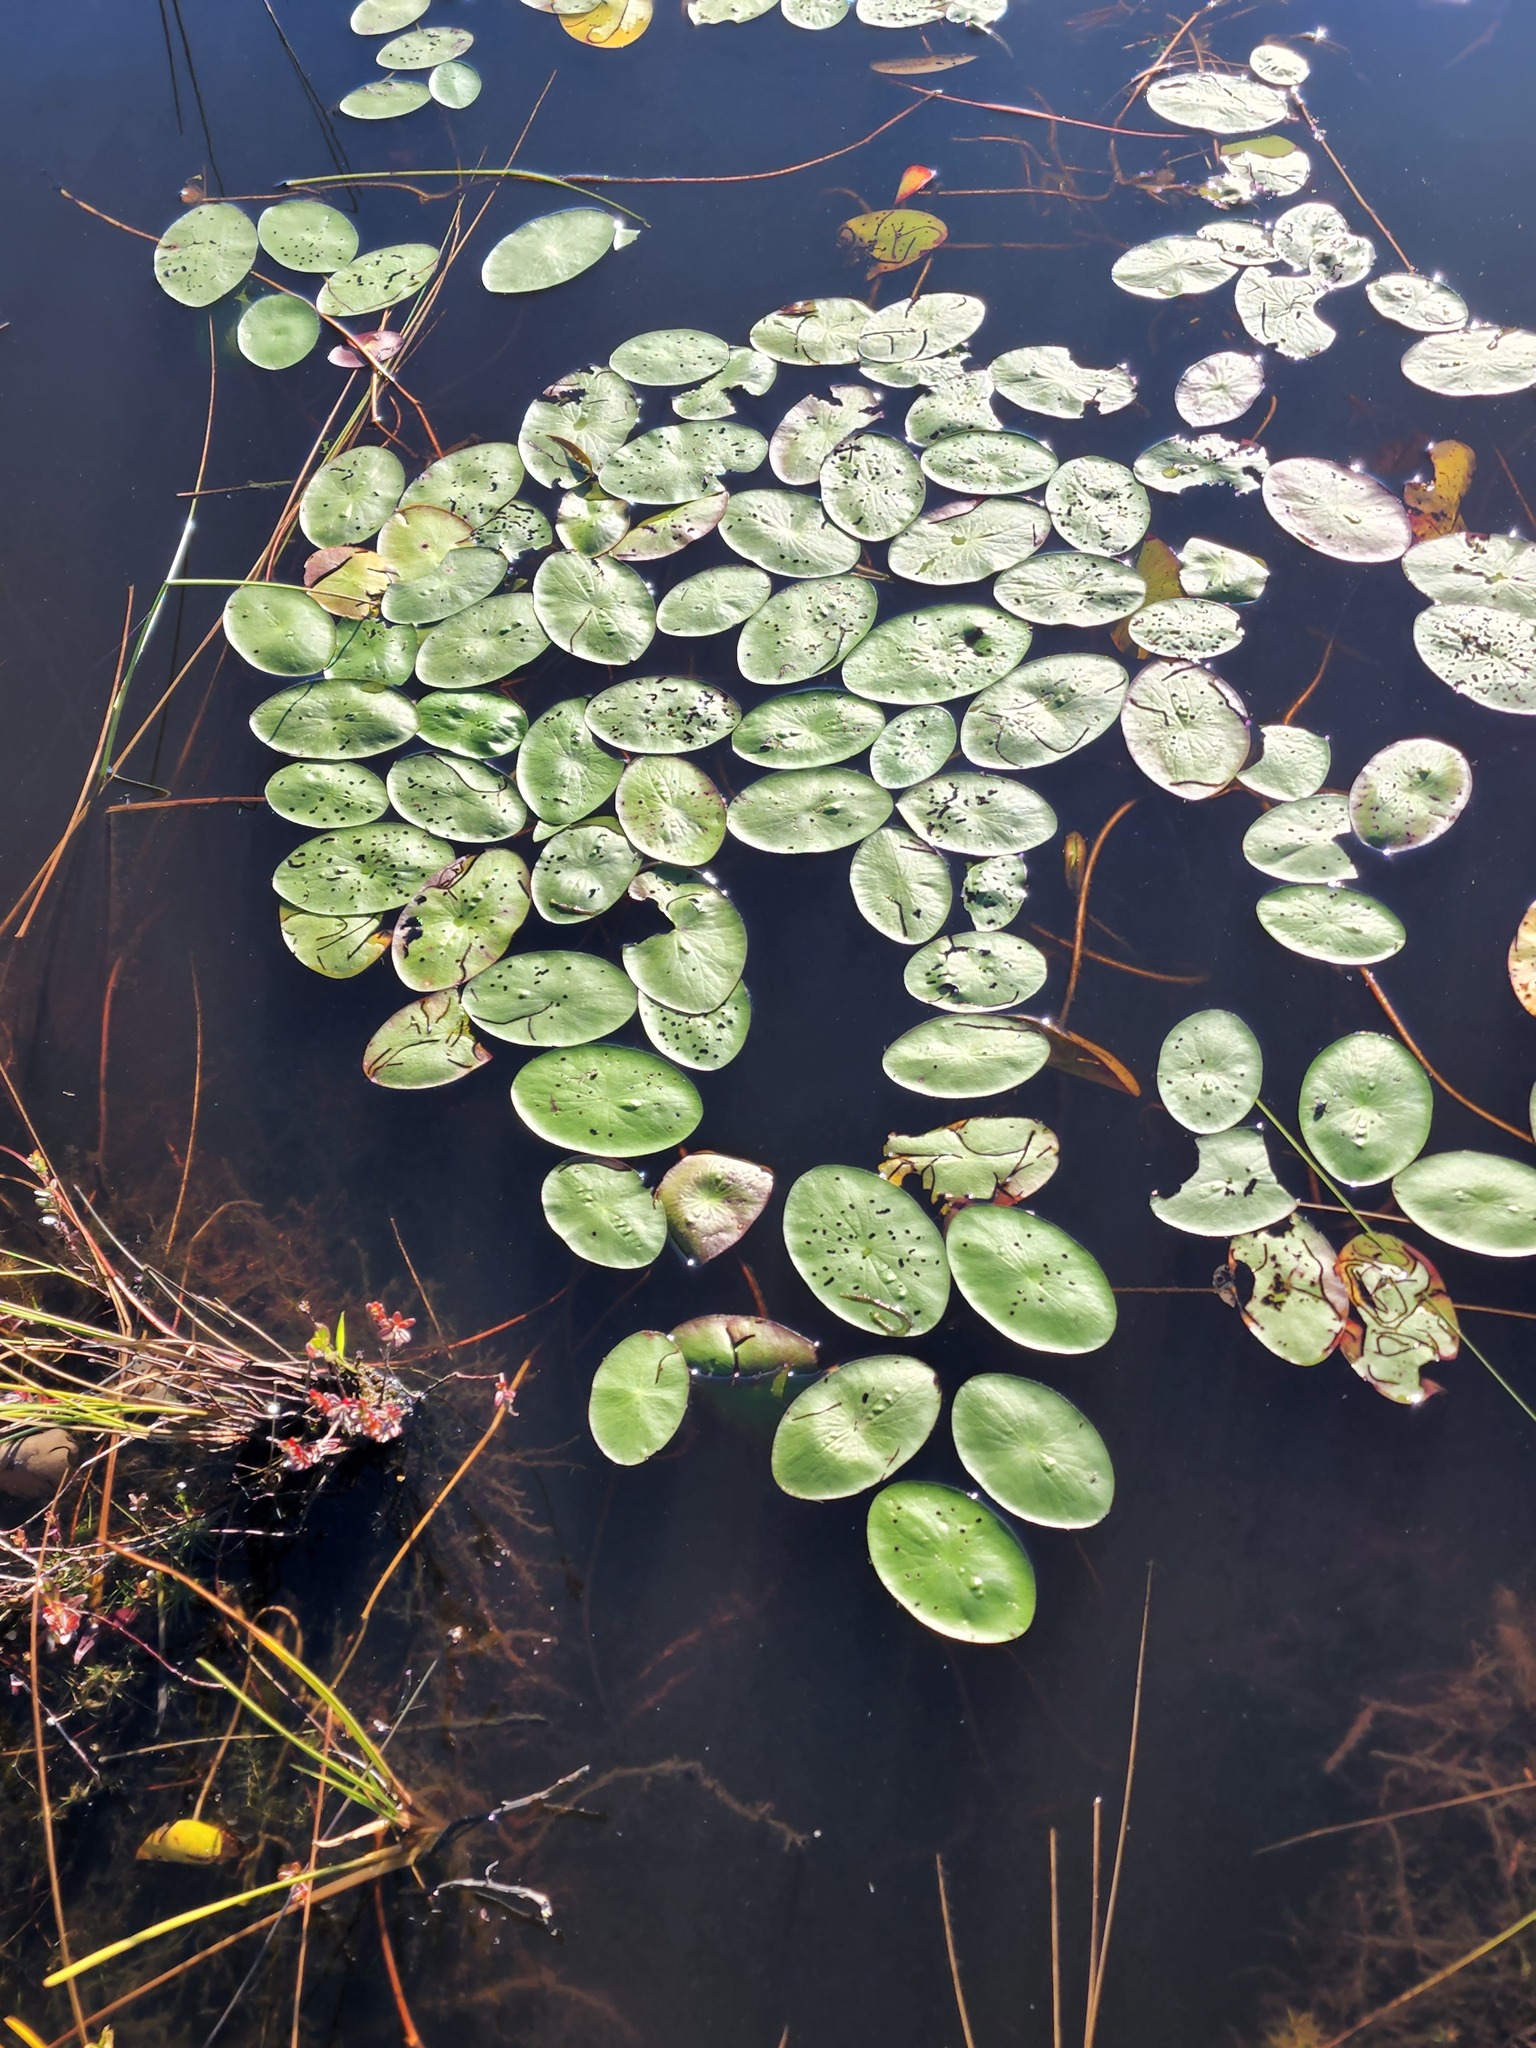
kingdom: Plantae
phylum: Tracheophyta
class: Magnoliopsida
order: Nymphaeales
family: Cabombaceae
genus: Brasenia
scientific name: Brasenia schreberi
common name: Water-shield
